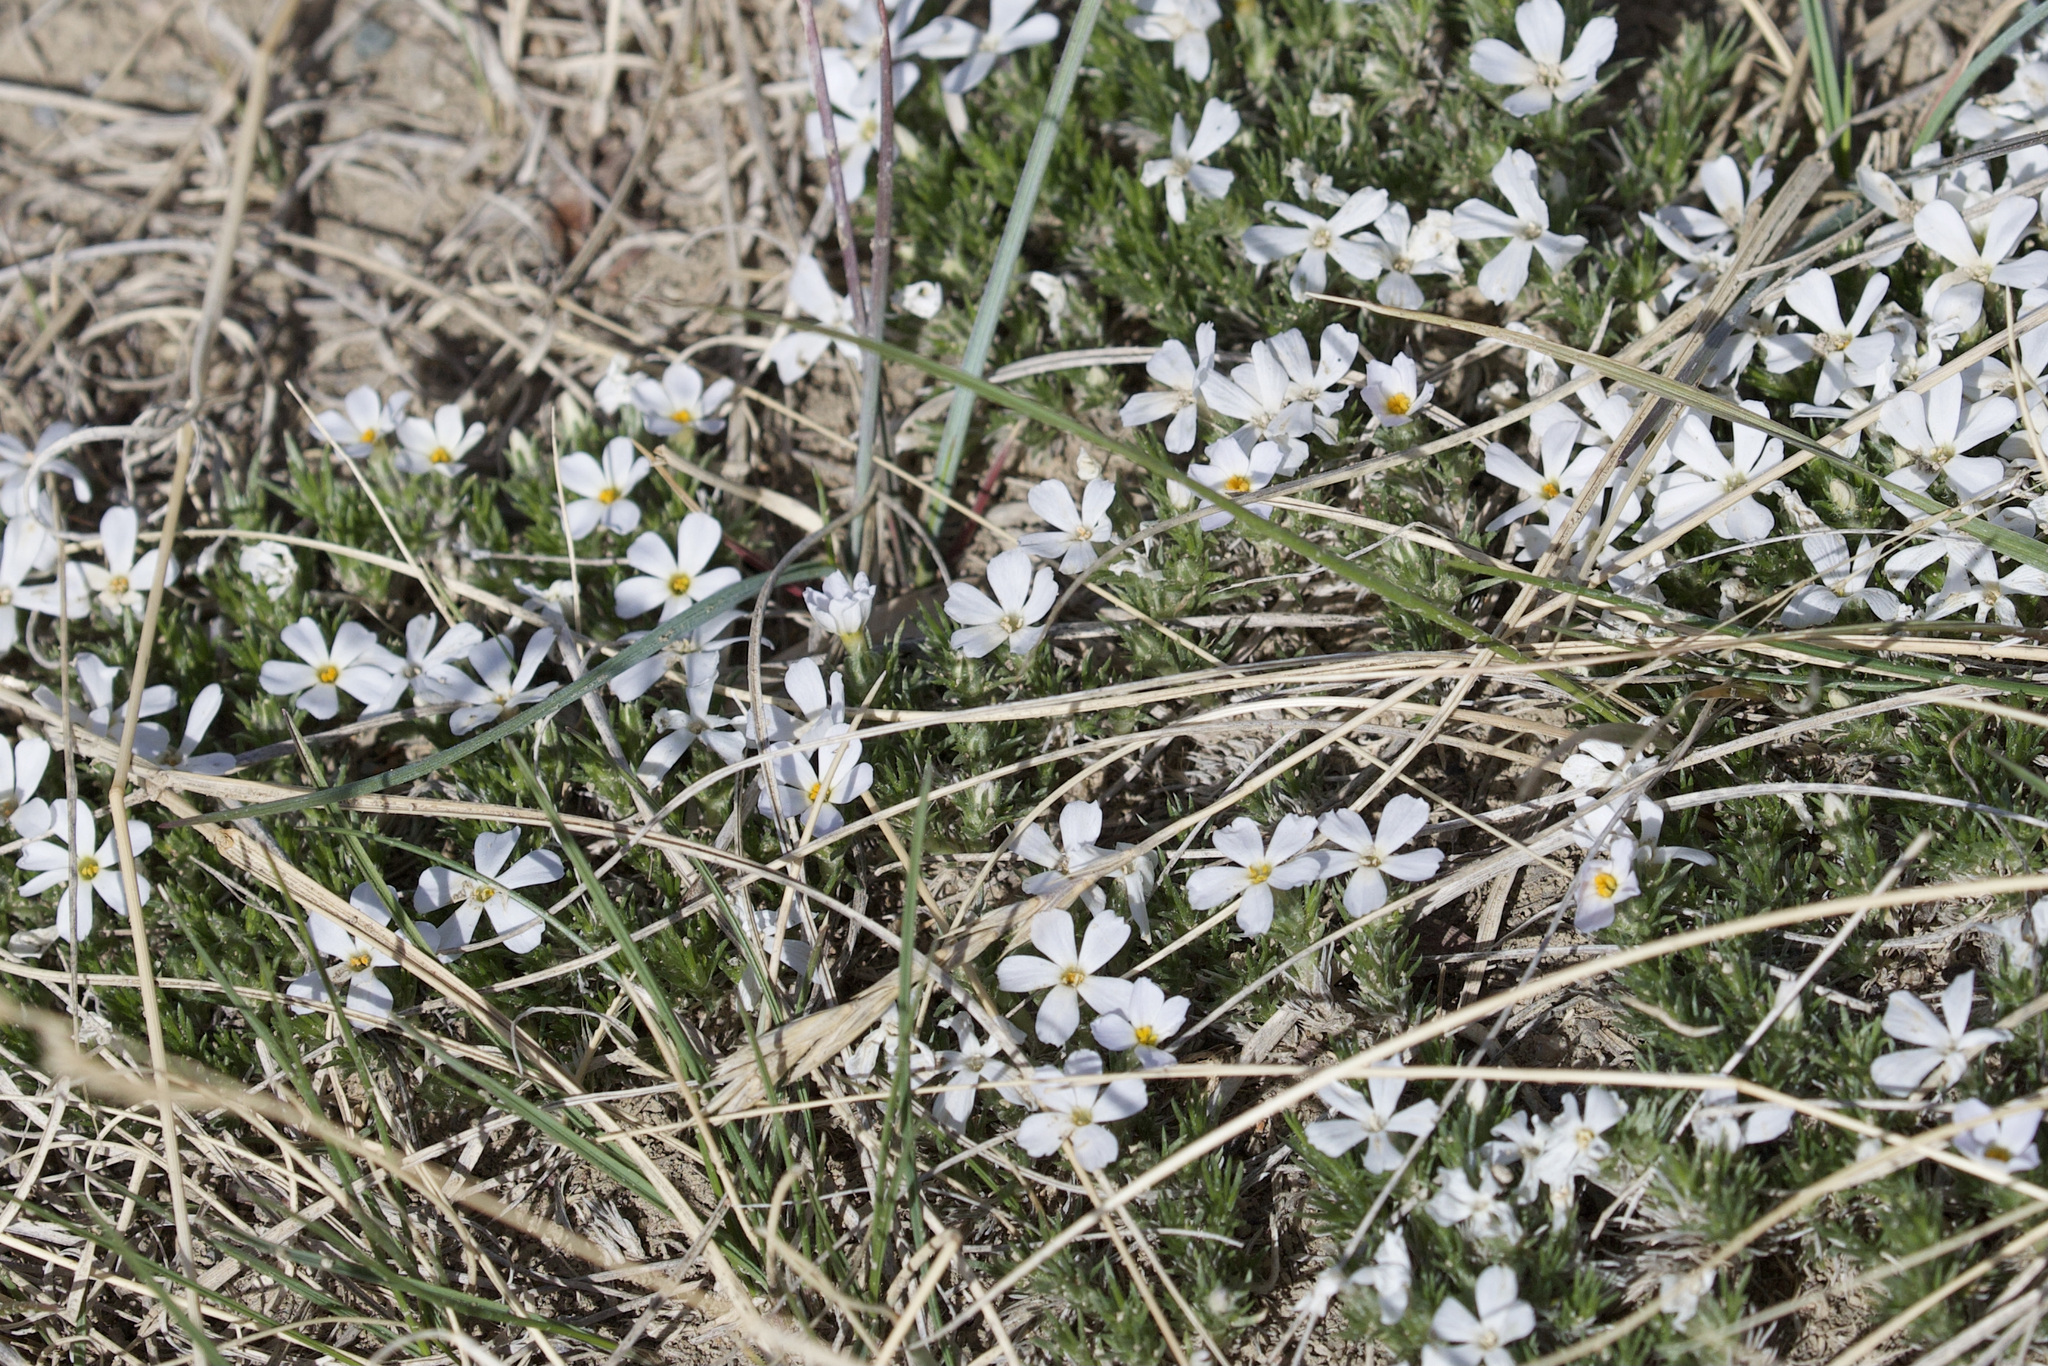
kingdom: Plantae
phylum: Tracheophyta
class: Magnoliopsida
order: Ericales
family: Polemoniaceae
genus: Phlox
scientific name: Phlox hoodii
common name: Moss phlox
